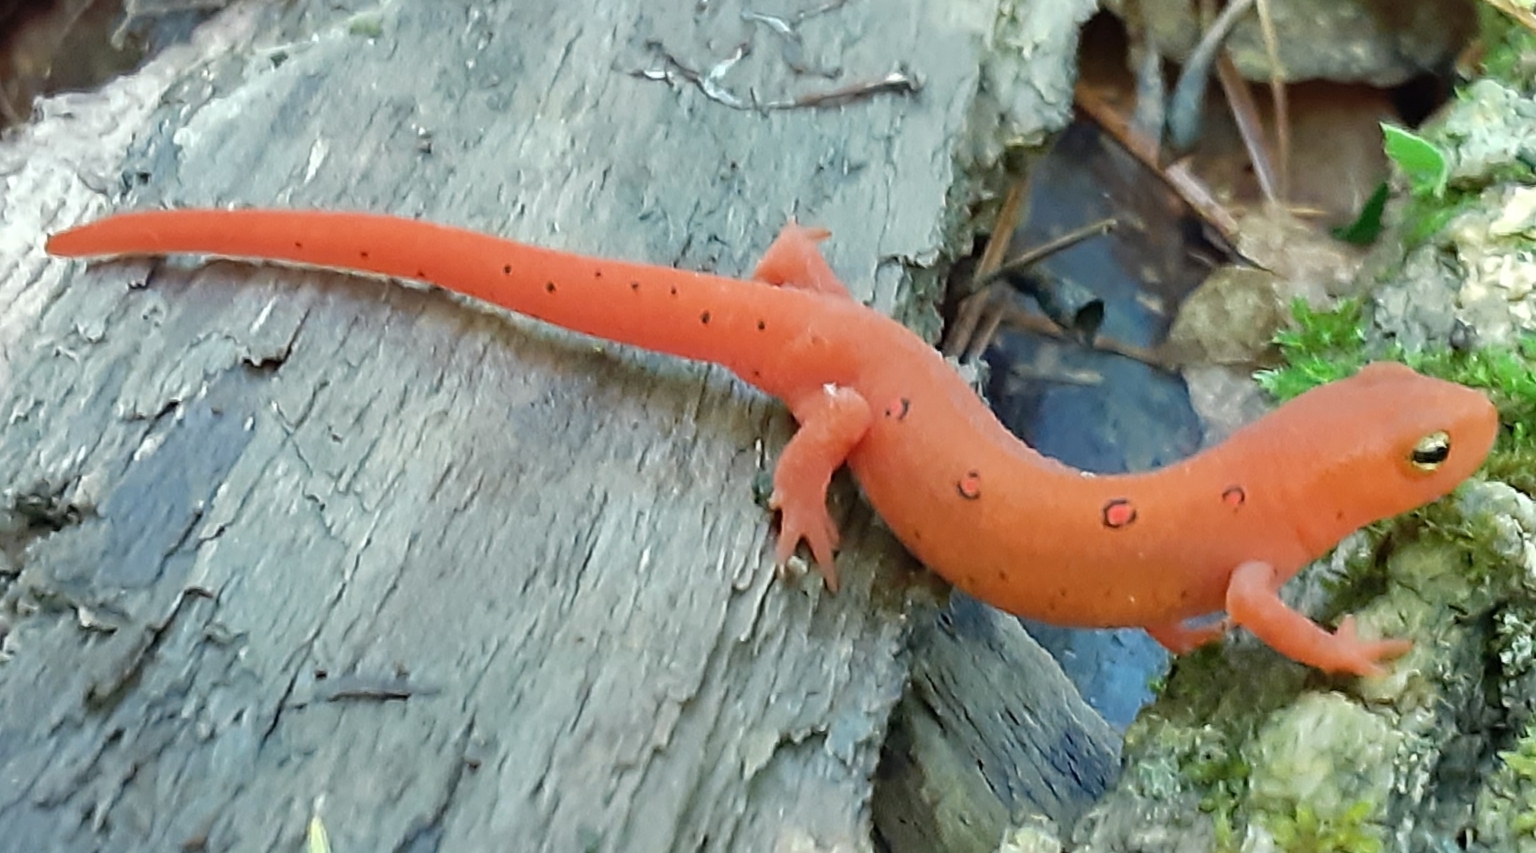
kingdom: Animalia
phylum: Chordata
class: Amphibia
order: Caudata
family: Salamandridae
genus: Notophthalmus
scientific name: Notophthalmus viridescens
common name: Eastern newt
